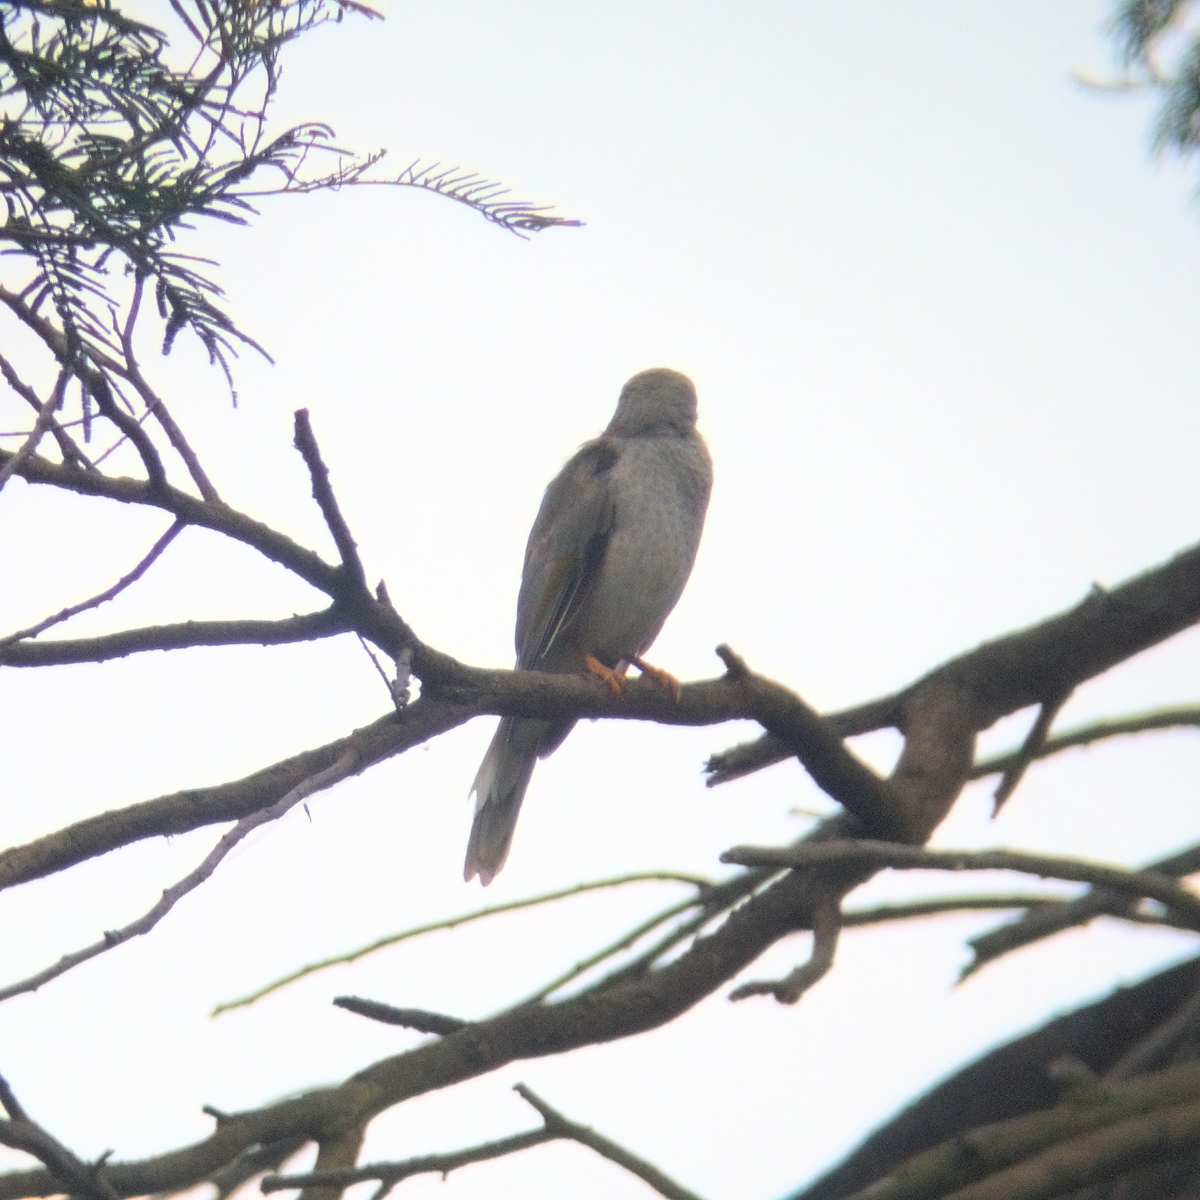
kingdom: Animalia
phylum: Chordata
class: Aves
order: Passeriformes
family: Meliphagidae
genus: Manorina
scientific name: Manorina melanocephala
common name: Noisy miner
